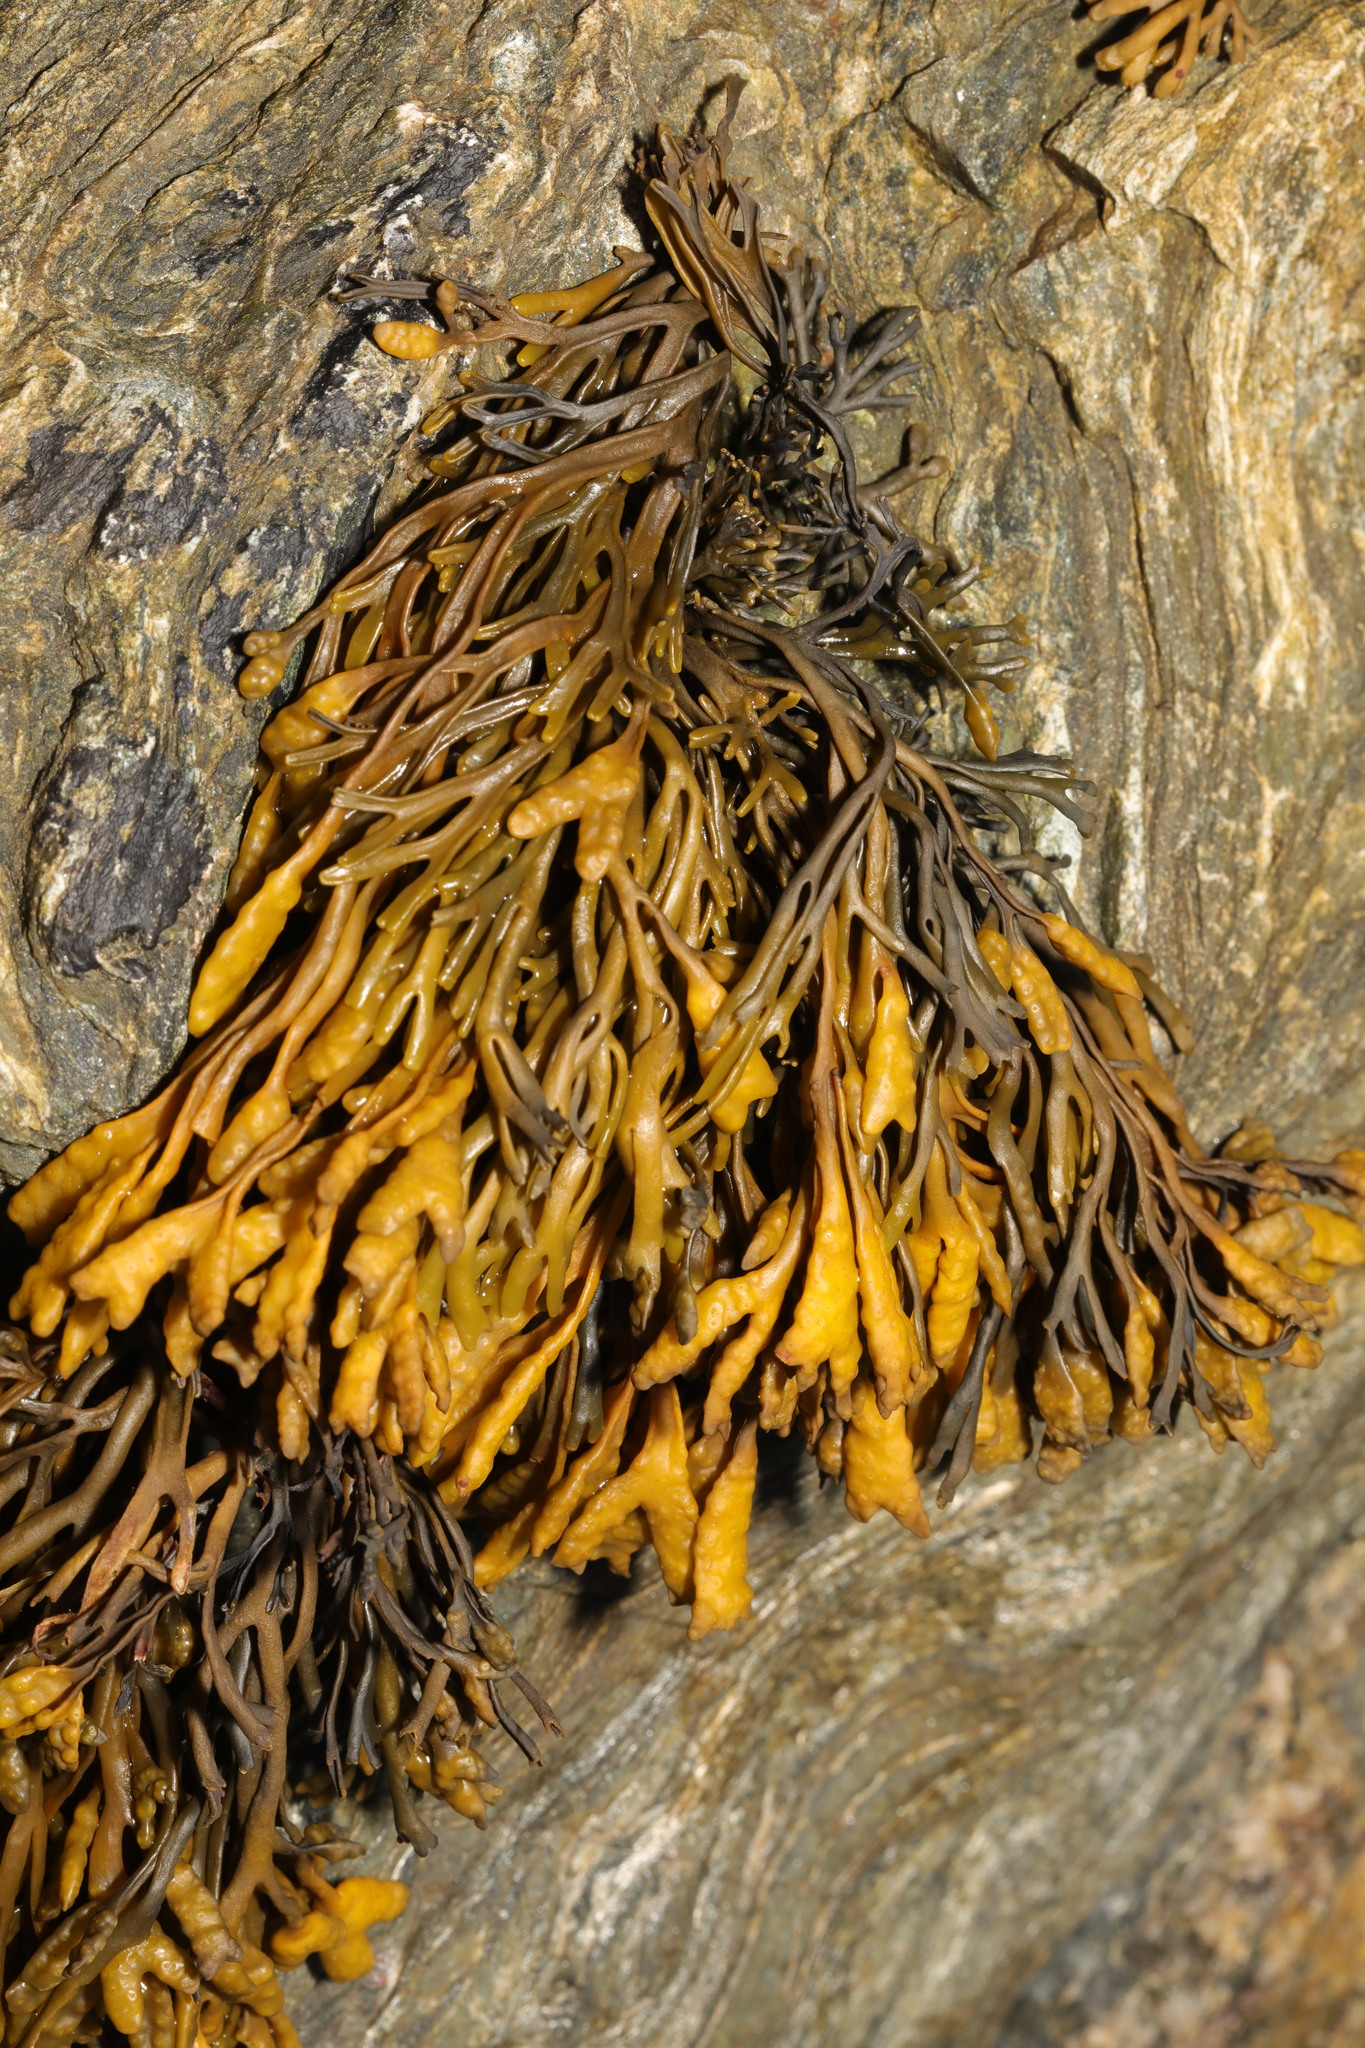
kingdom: Chromista
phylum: Ochrophyta
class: Phaeophyceae
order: Fucales
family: Fucaceae
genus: Pelvetia
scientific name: Pelvetia canaliculata
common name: Channelled wrack
